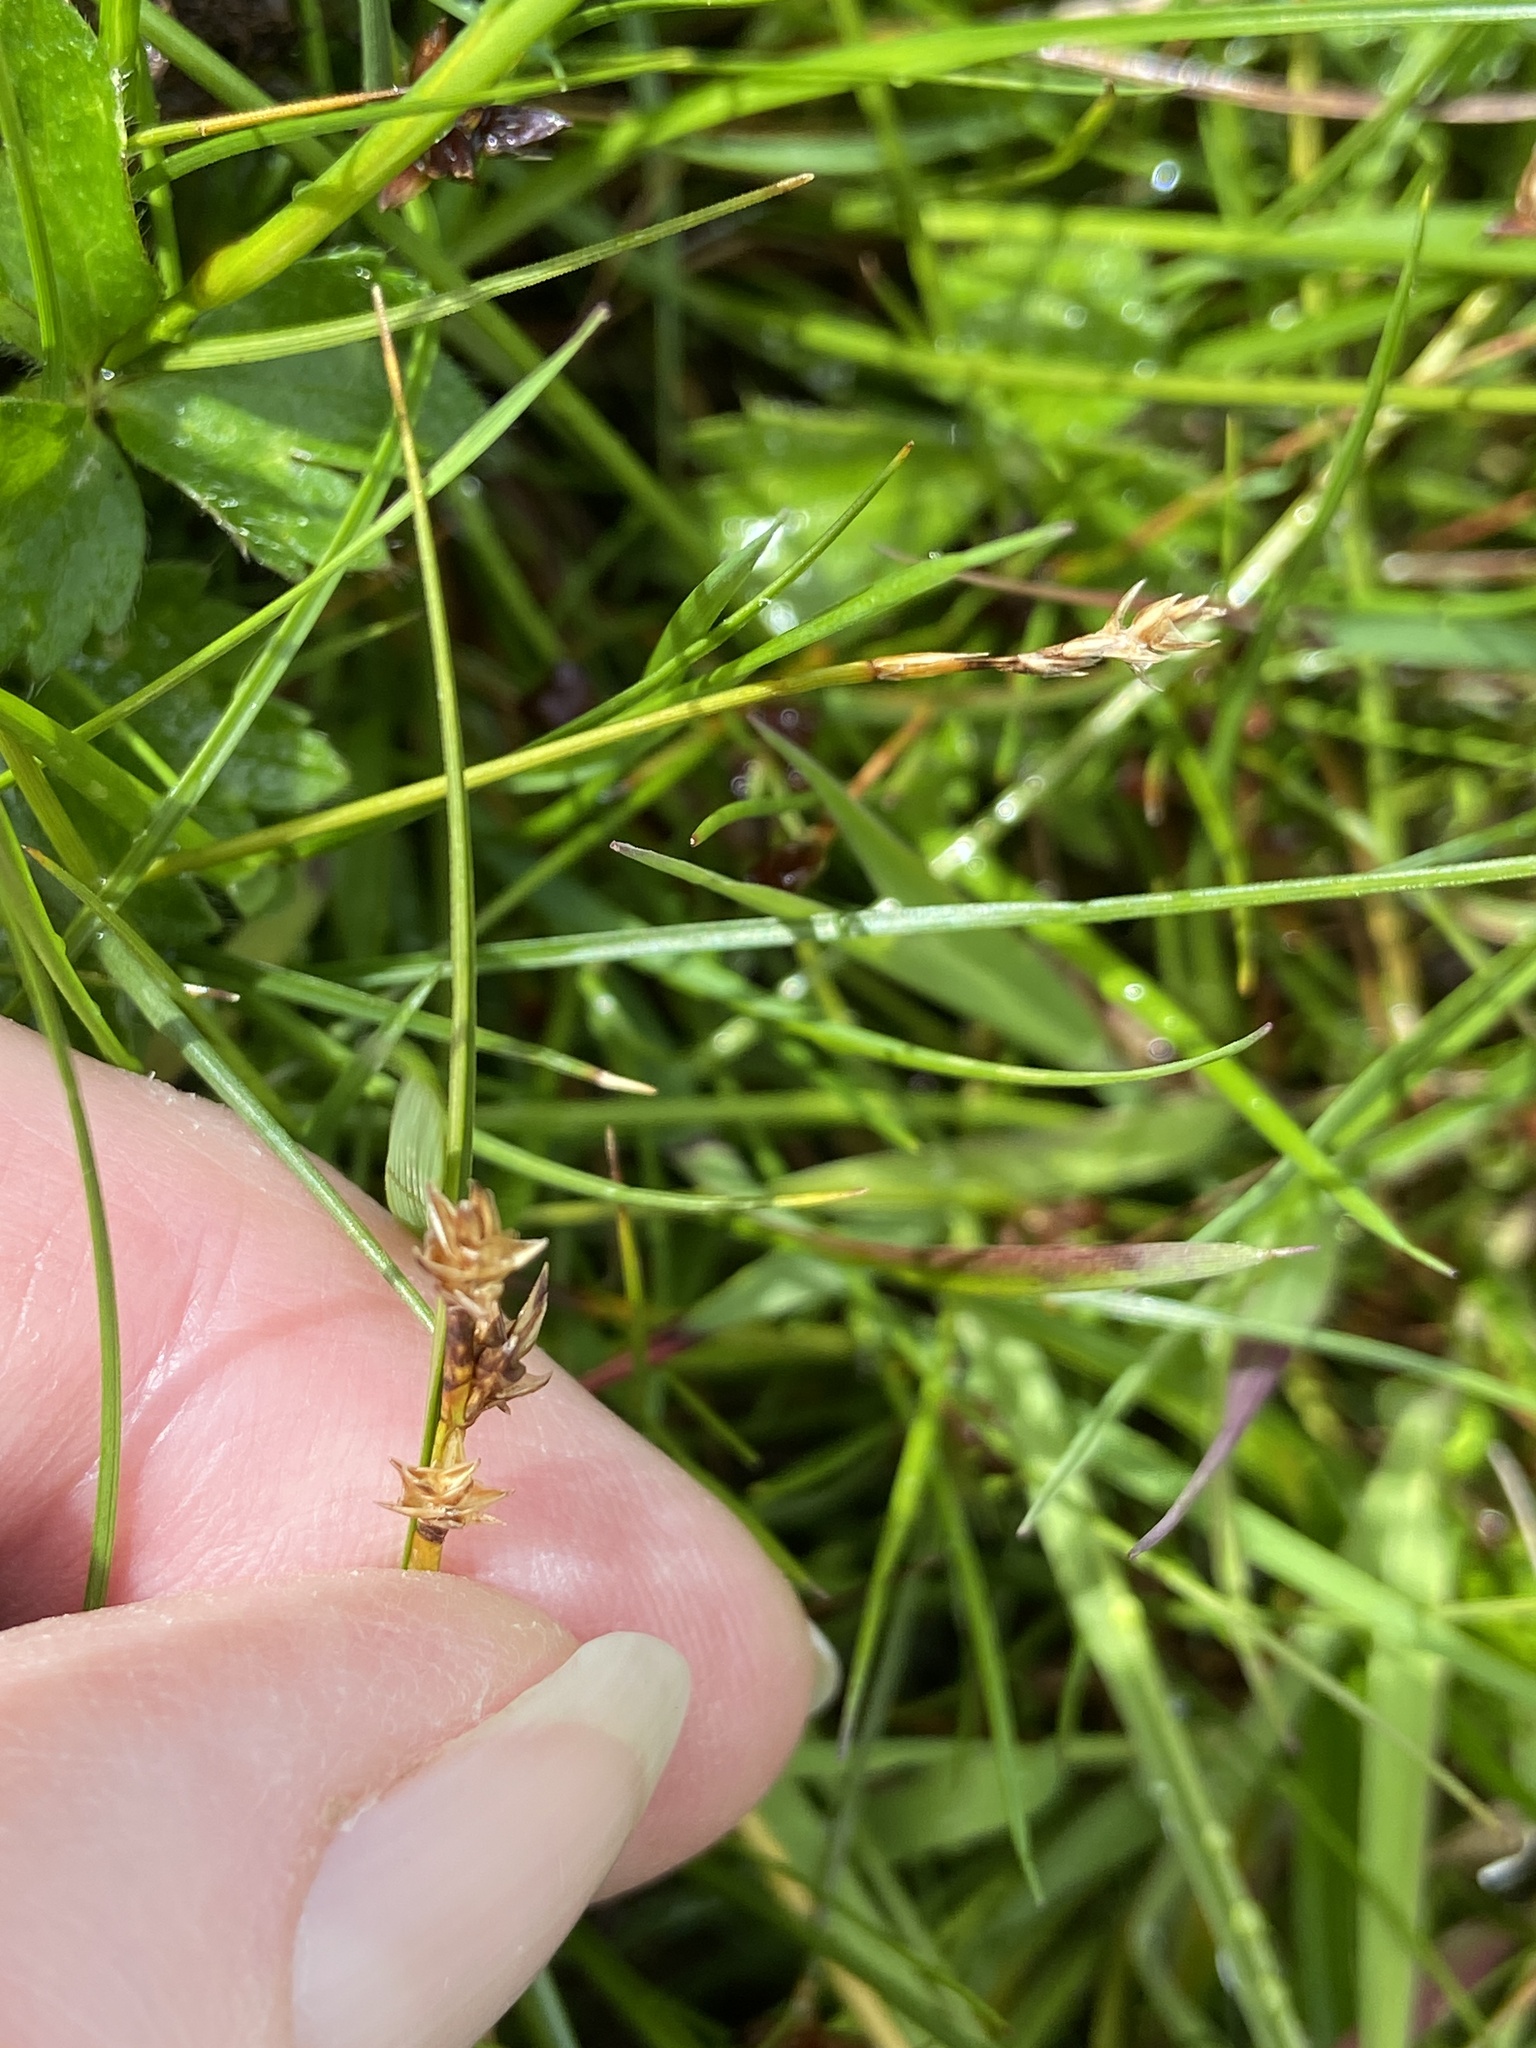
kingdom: Plantae
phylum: Tracheophyta
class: Liliopsida
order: Poales
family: Cyperaceae
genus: Carex
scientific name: Carex echinata
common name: Star sedge
